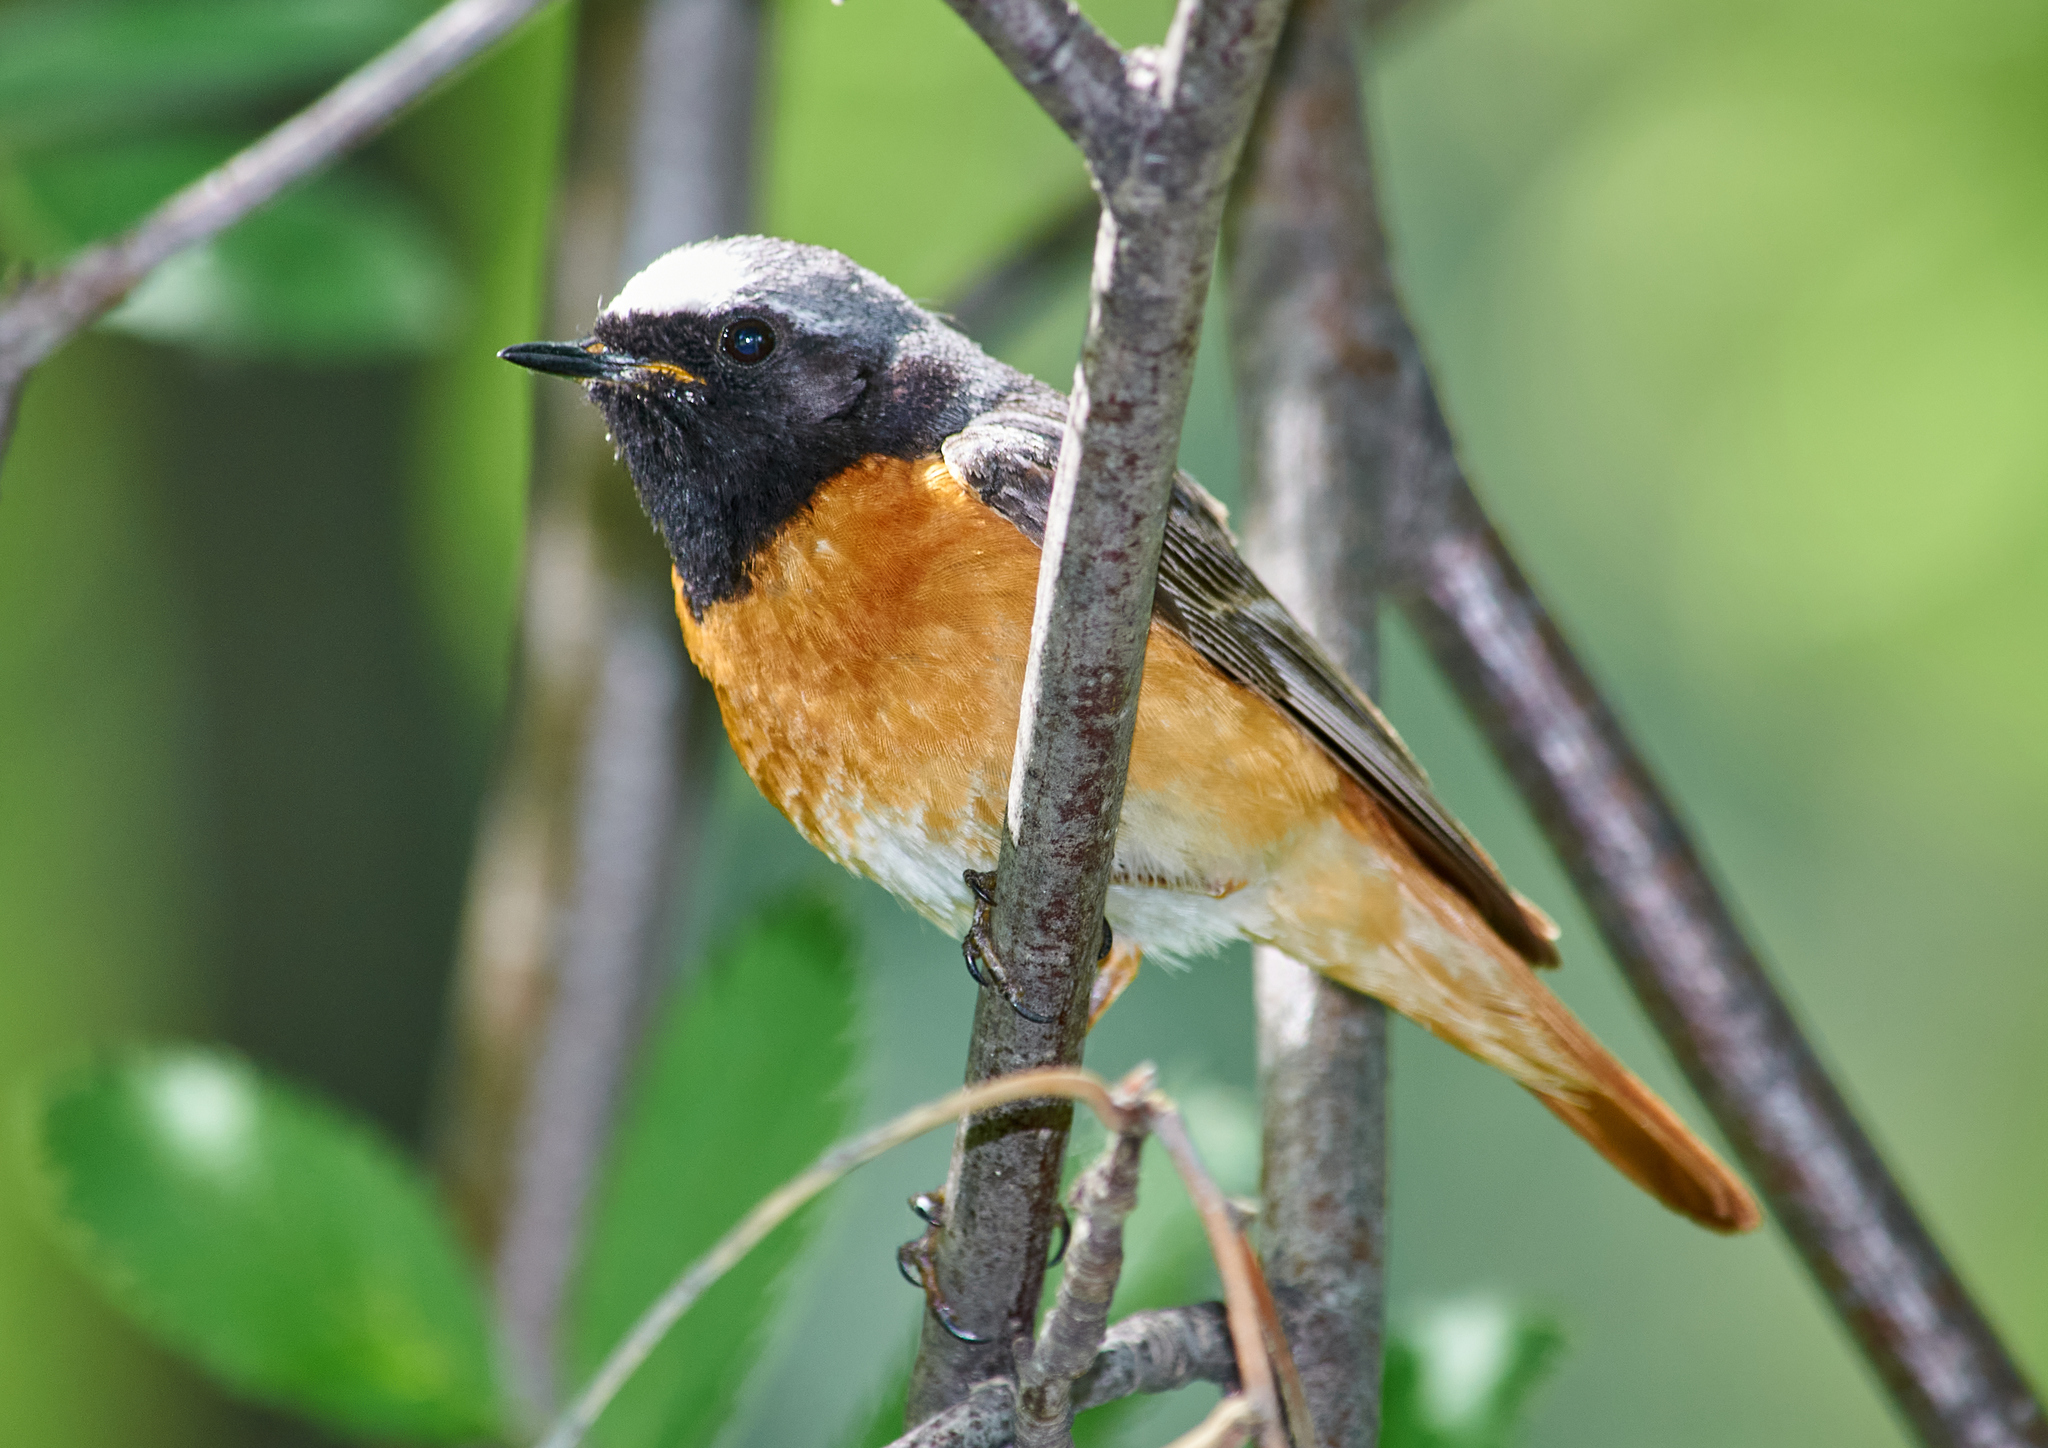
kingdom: Animalia
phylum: Chordata
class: Aves
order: Passeriformes
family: Muscicapidae
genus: Phoenicurus
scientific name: Phoenicurus phoenicurus
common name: Common redstart
